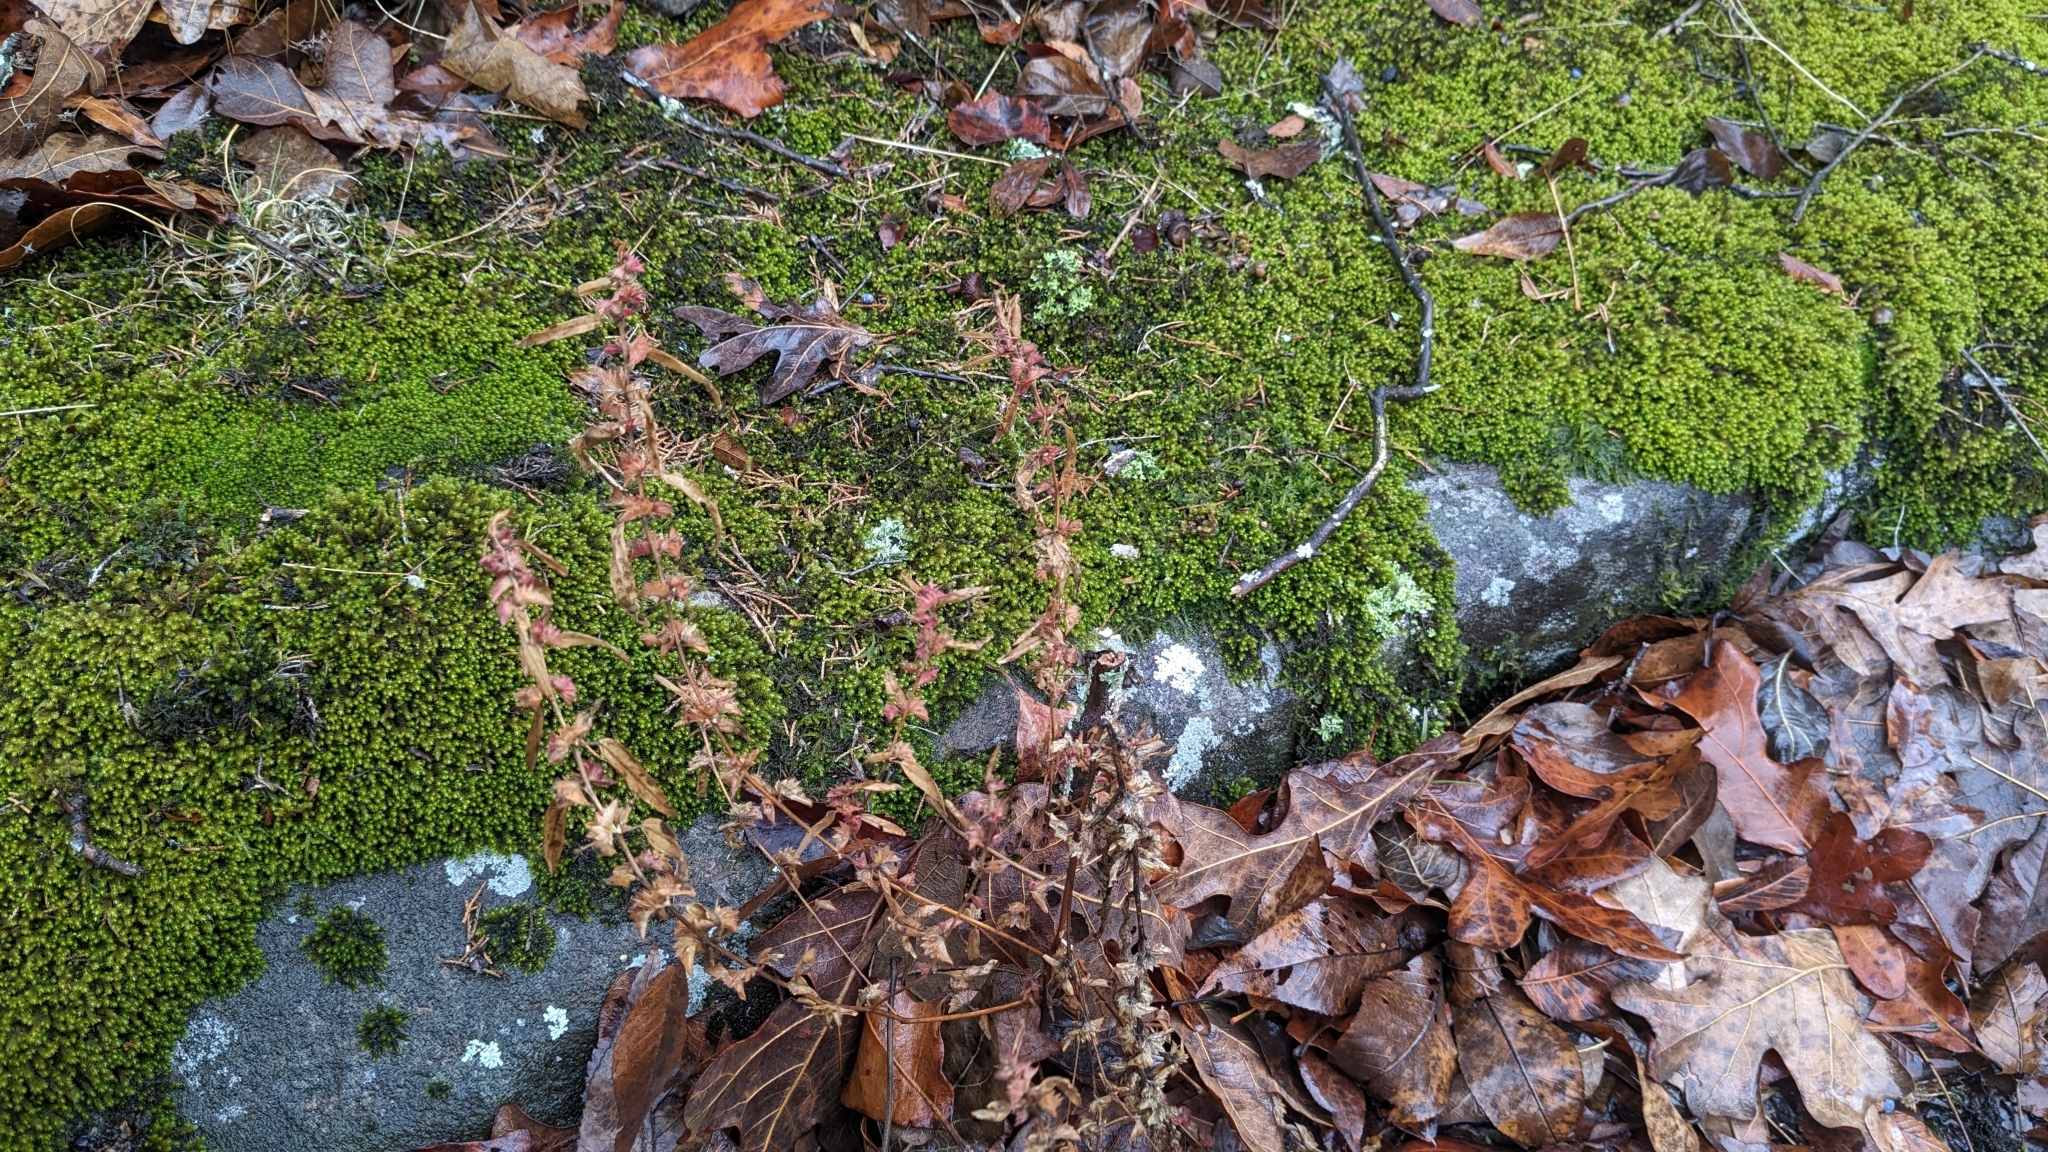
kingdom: Plantae
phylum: Tracheophyta
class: Magnoliopsida
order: Malpighiales
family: Euphorbiaceae
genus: Acalypha
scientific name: Acalypha gracilens
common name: Slender three-seeded mercury
